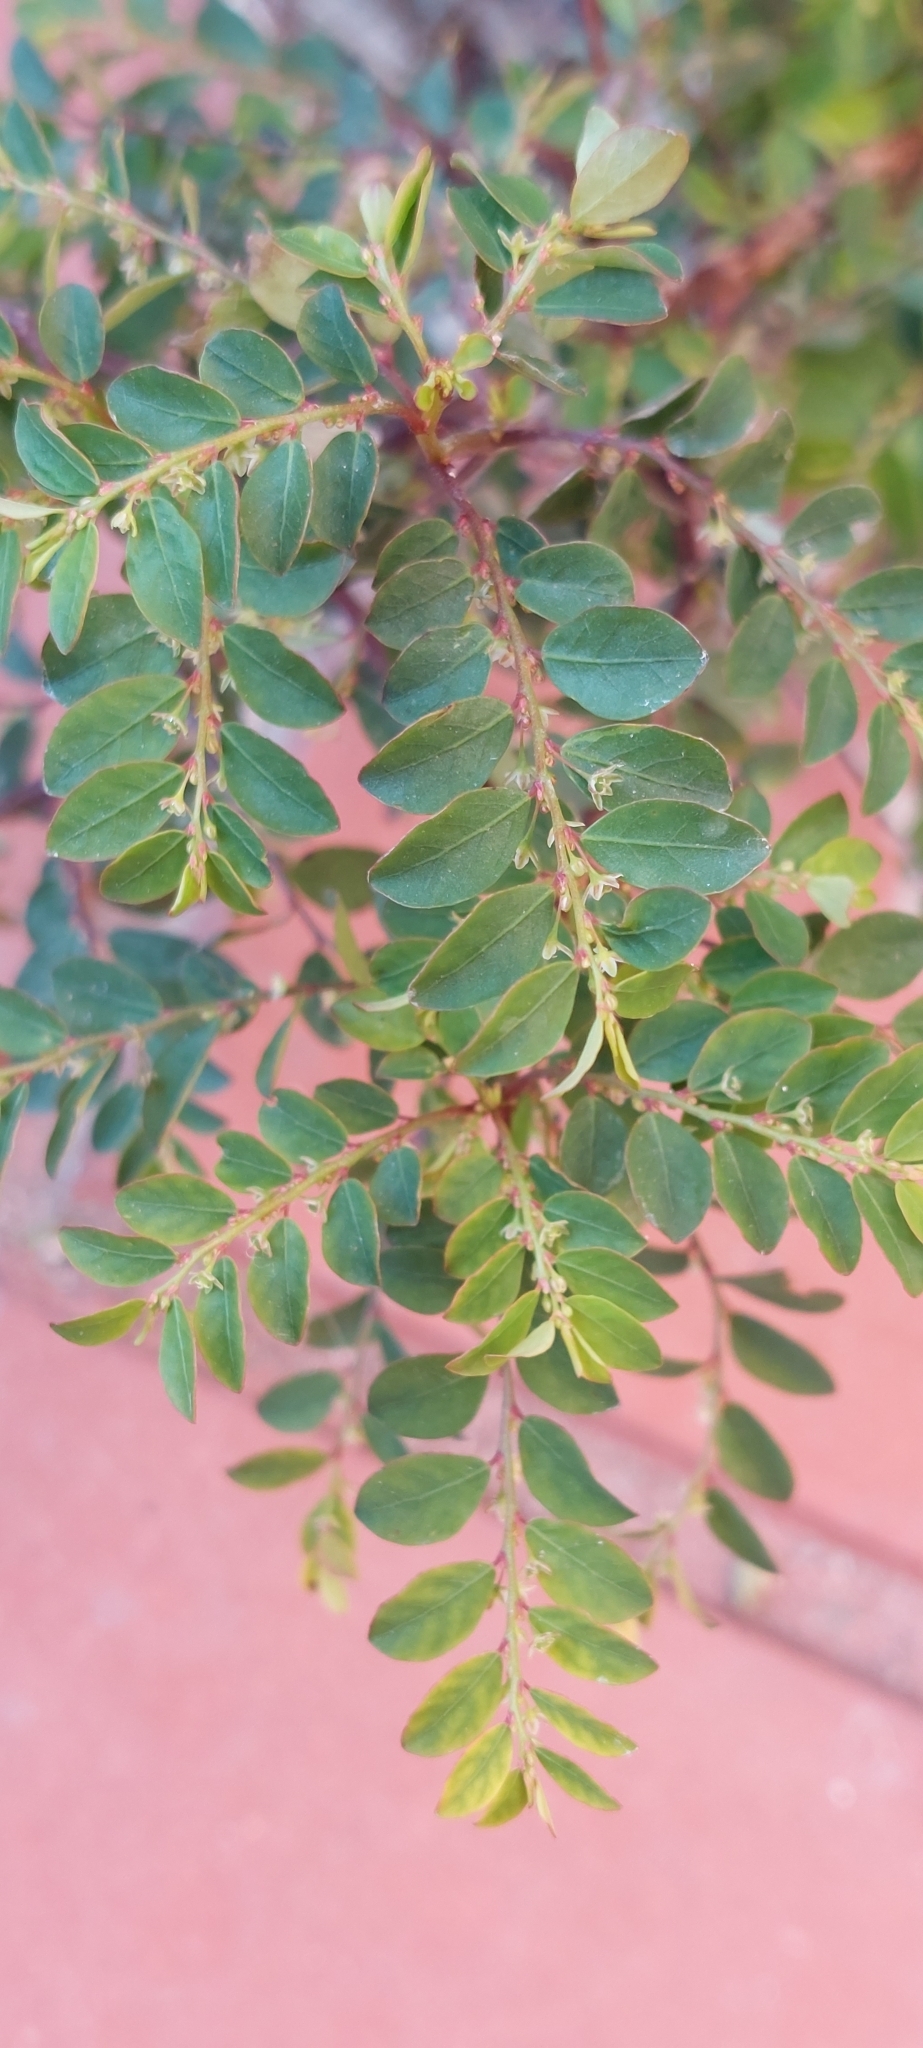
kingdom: Plantae
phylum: Tracheophyta
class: Magnoliopsida
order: Malpighiales
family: Phyllanthaceae
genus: Phyllanthus
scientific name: Phyllanthus tenellus
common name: Mascarene island leaf-flower
